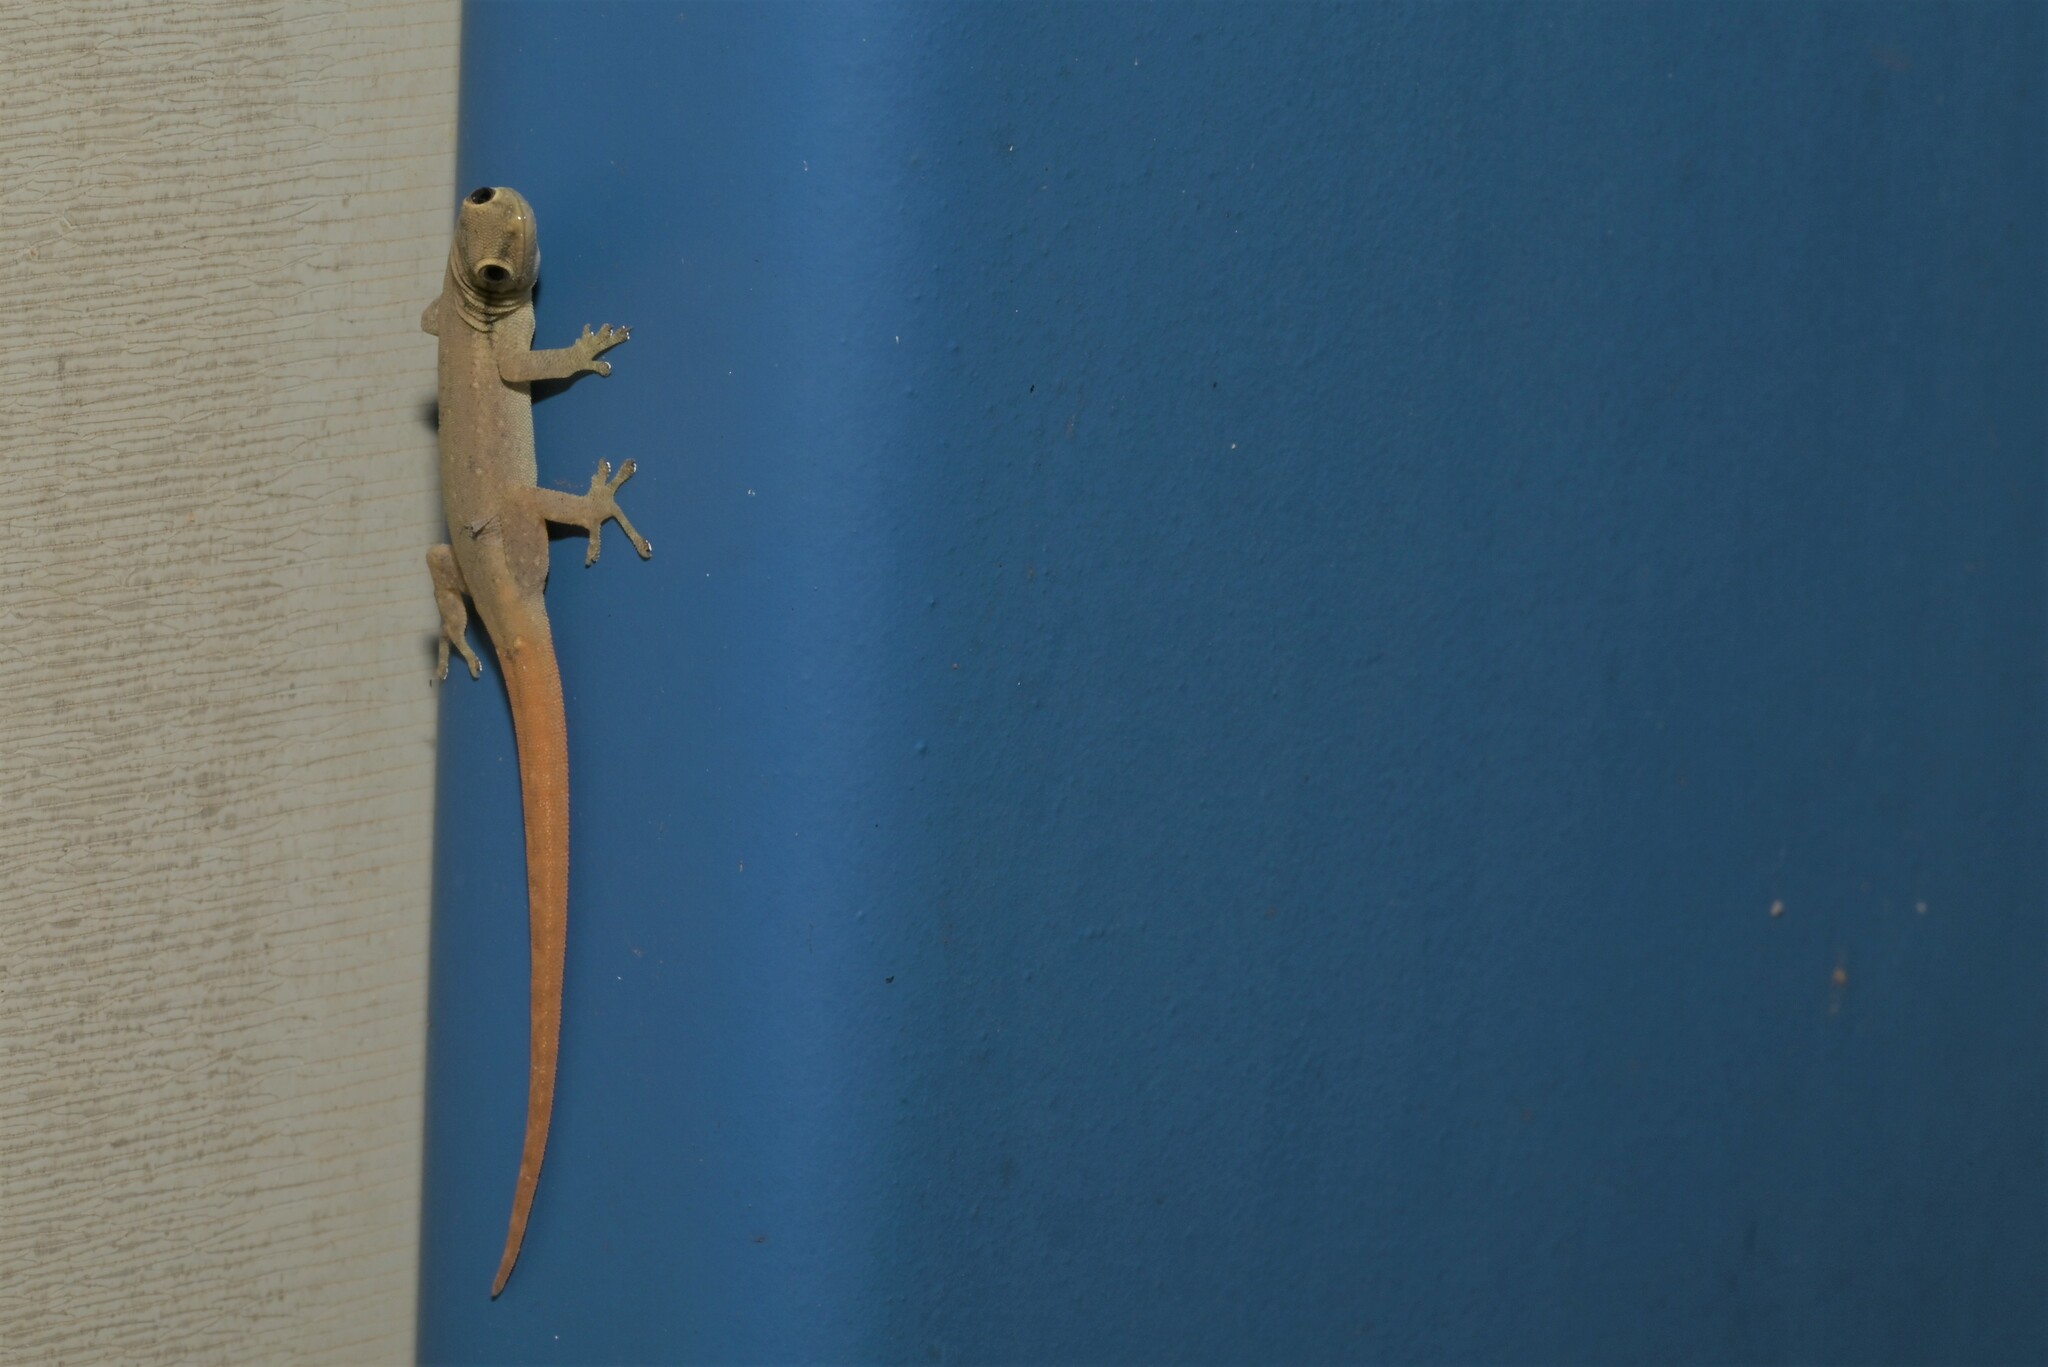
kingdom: Animalia
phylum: Chordata
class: Squamata
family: Gekkonidae
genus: Lygodactylus
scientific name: Lygodactylus capensis
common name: Cape dwarf gecko
